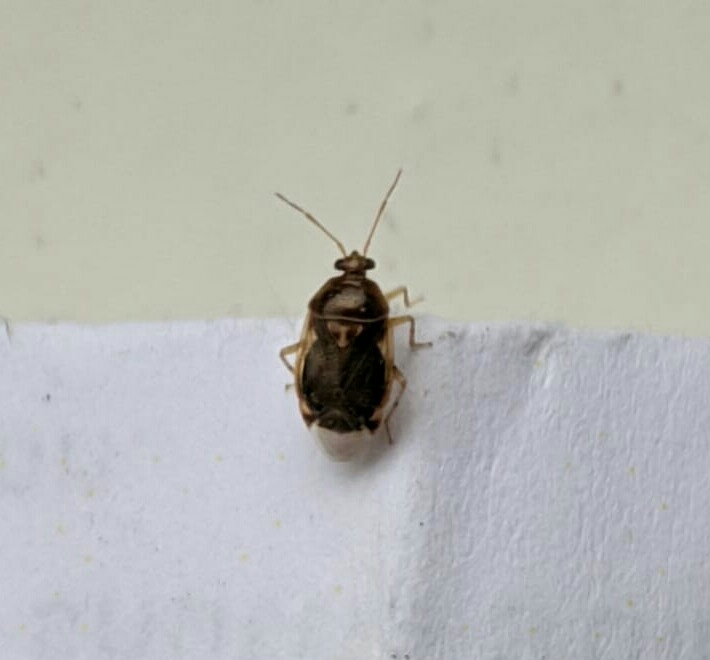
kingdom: Animalia
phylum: Arthropoda
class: Insecta
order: Hemiptera
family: Miridae
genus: Deraeocoris
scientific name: Deraeocoris lutescens
